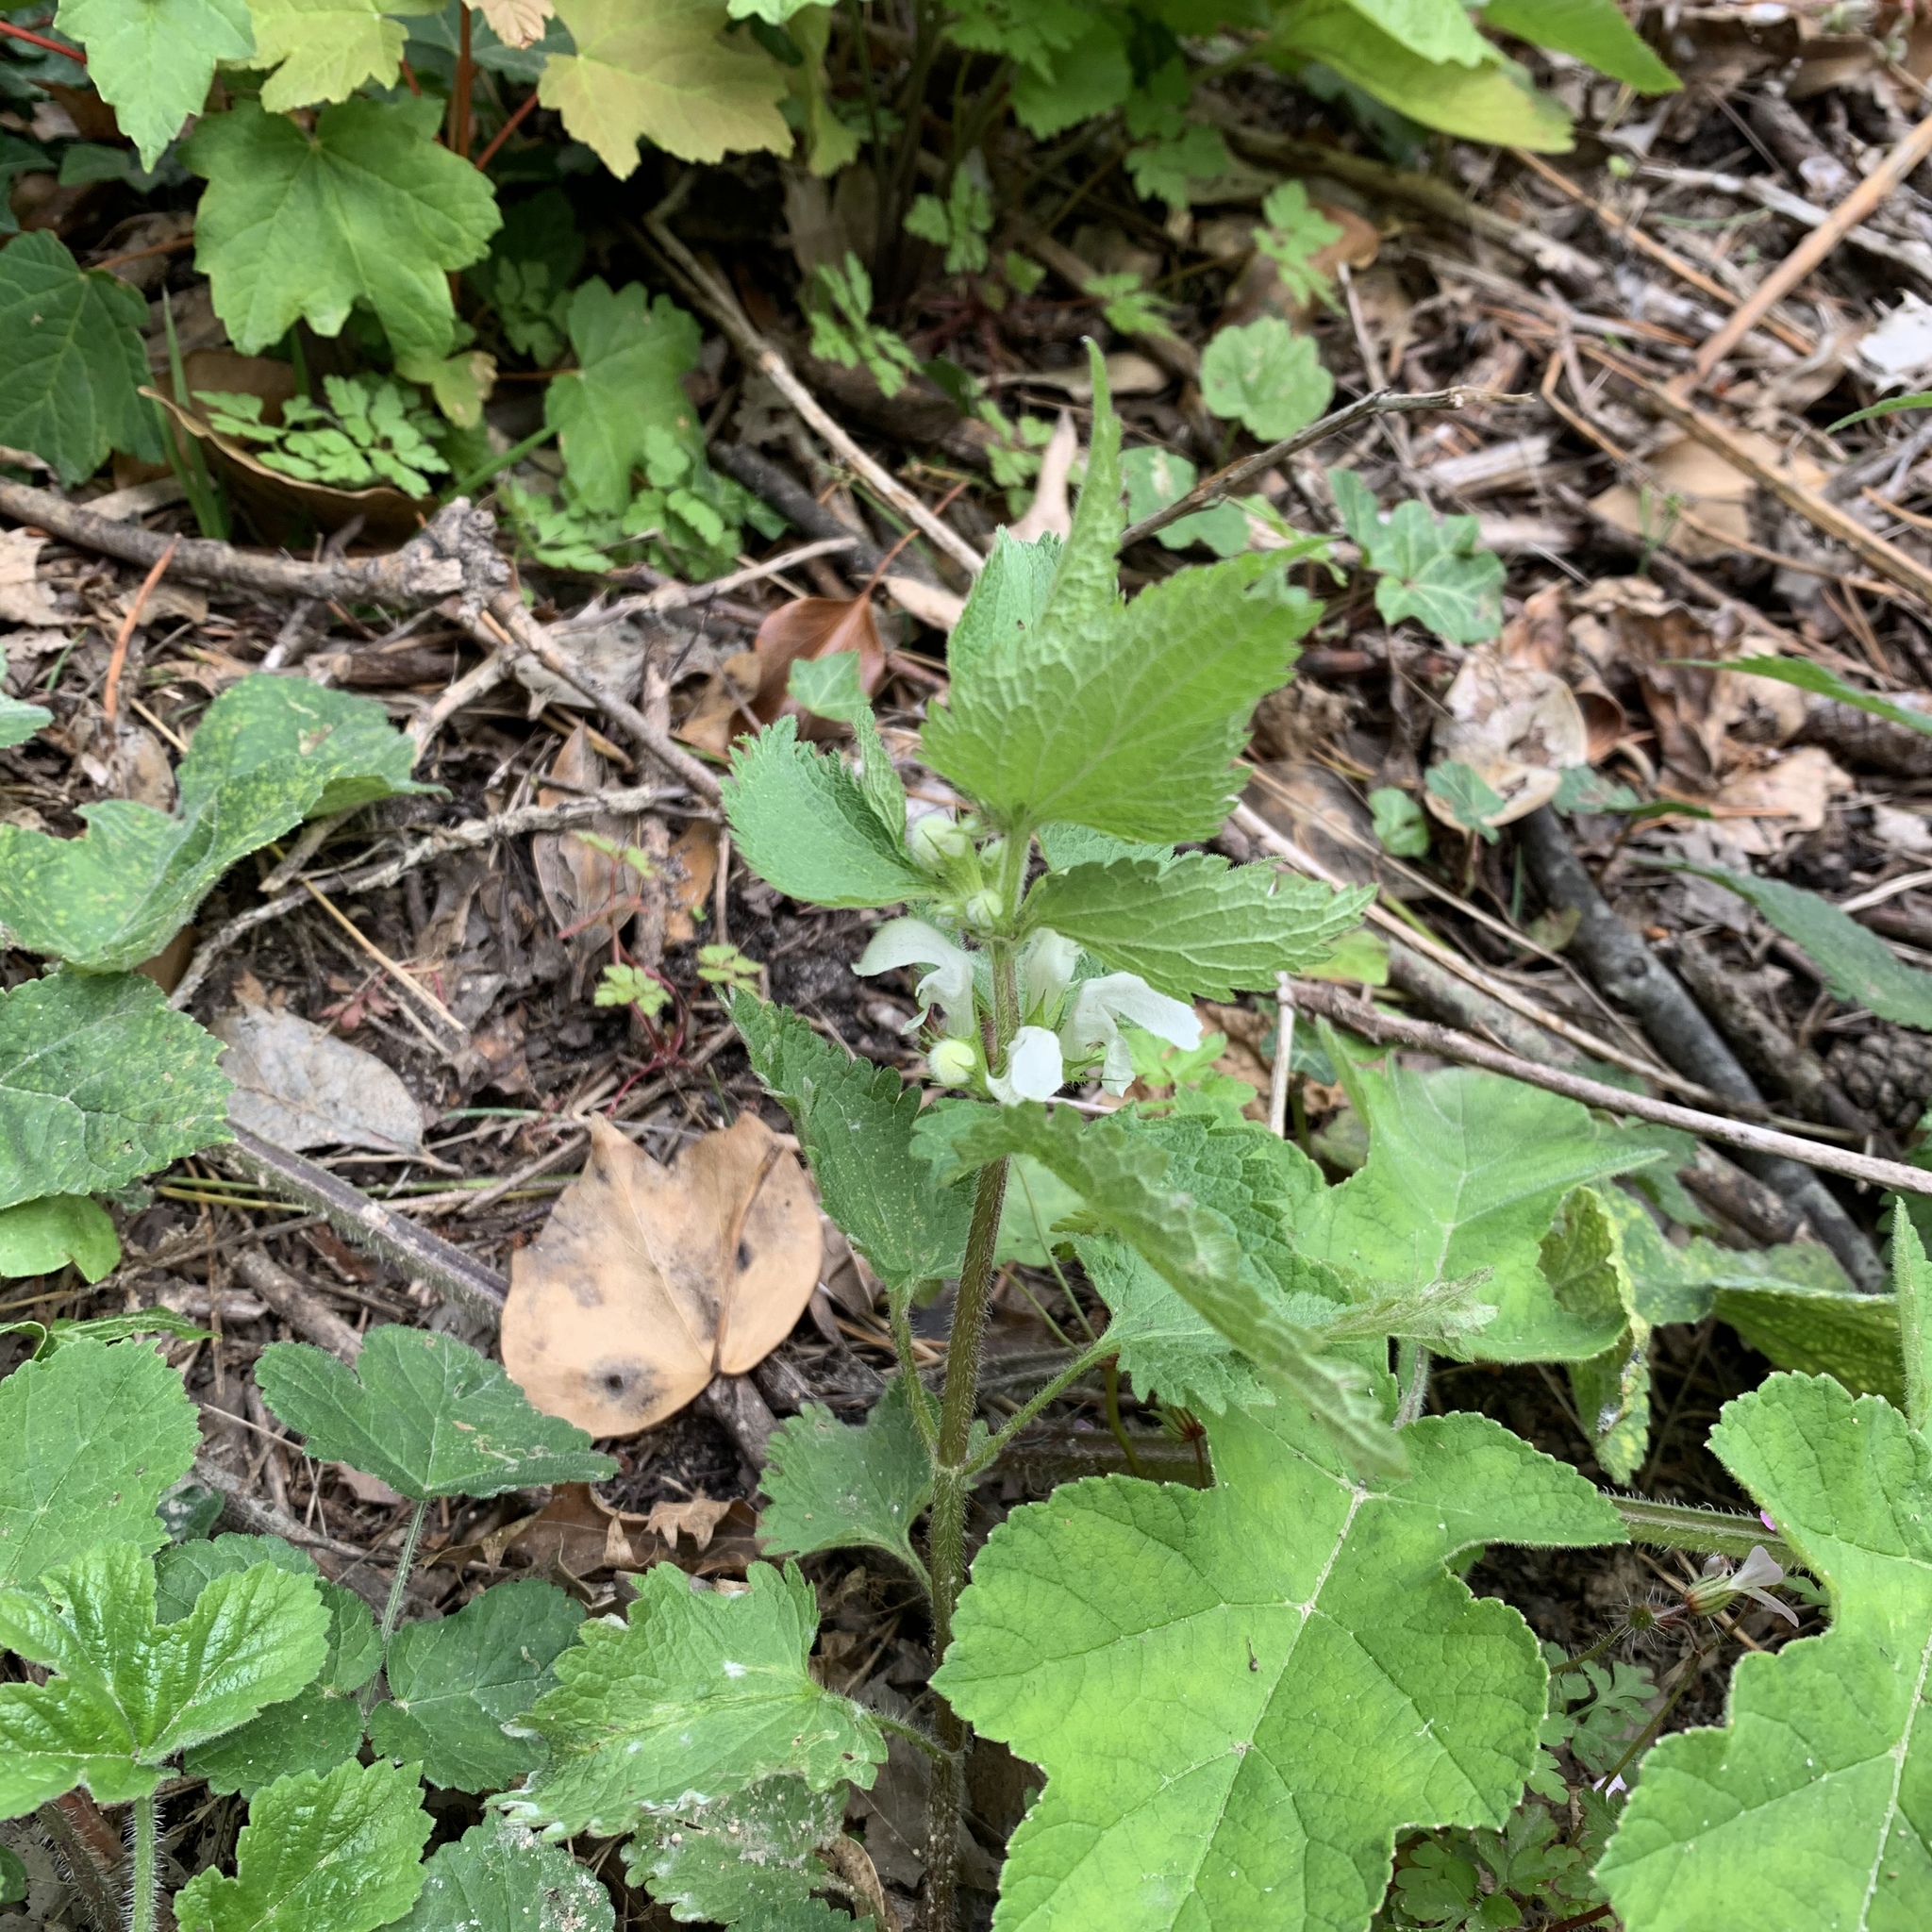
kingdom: Plantae
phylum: Tracheophyta
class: Magnoliopsida
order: Lamiales
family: Lamiaceae
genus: Lamium
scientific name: Lamium album
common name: White dead-nettle
